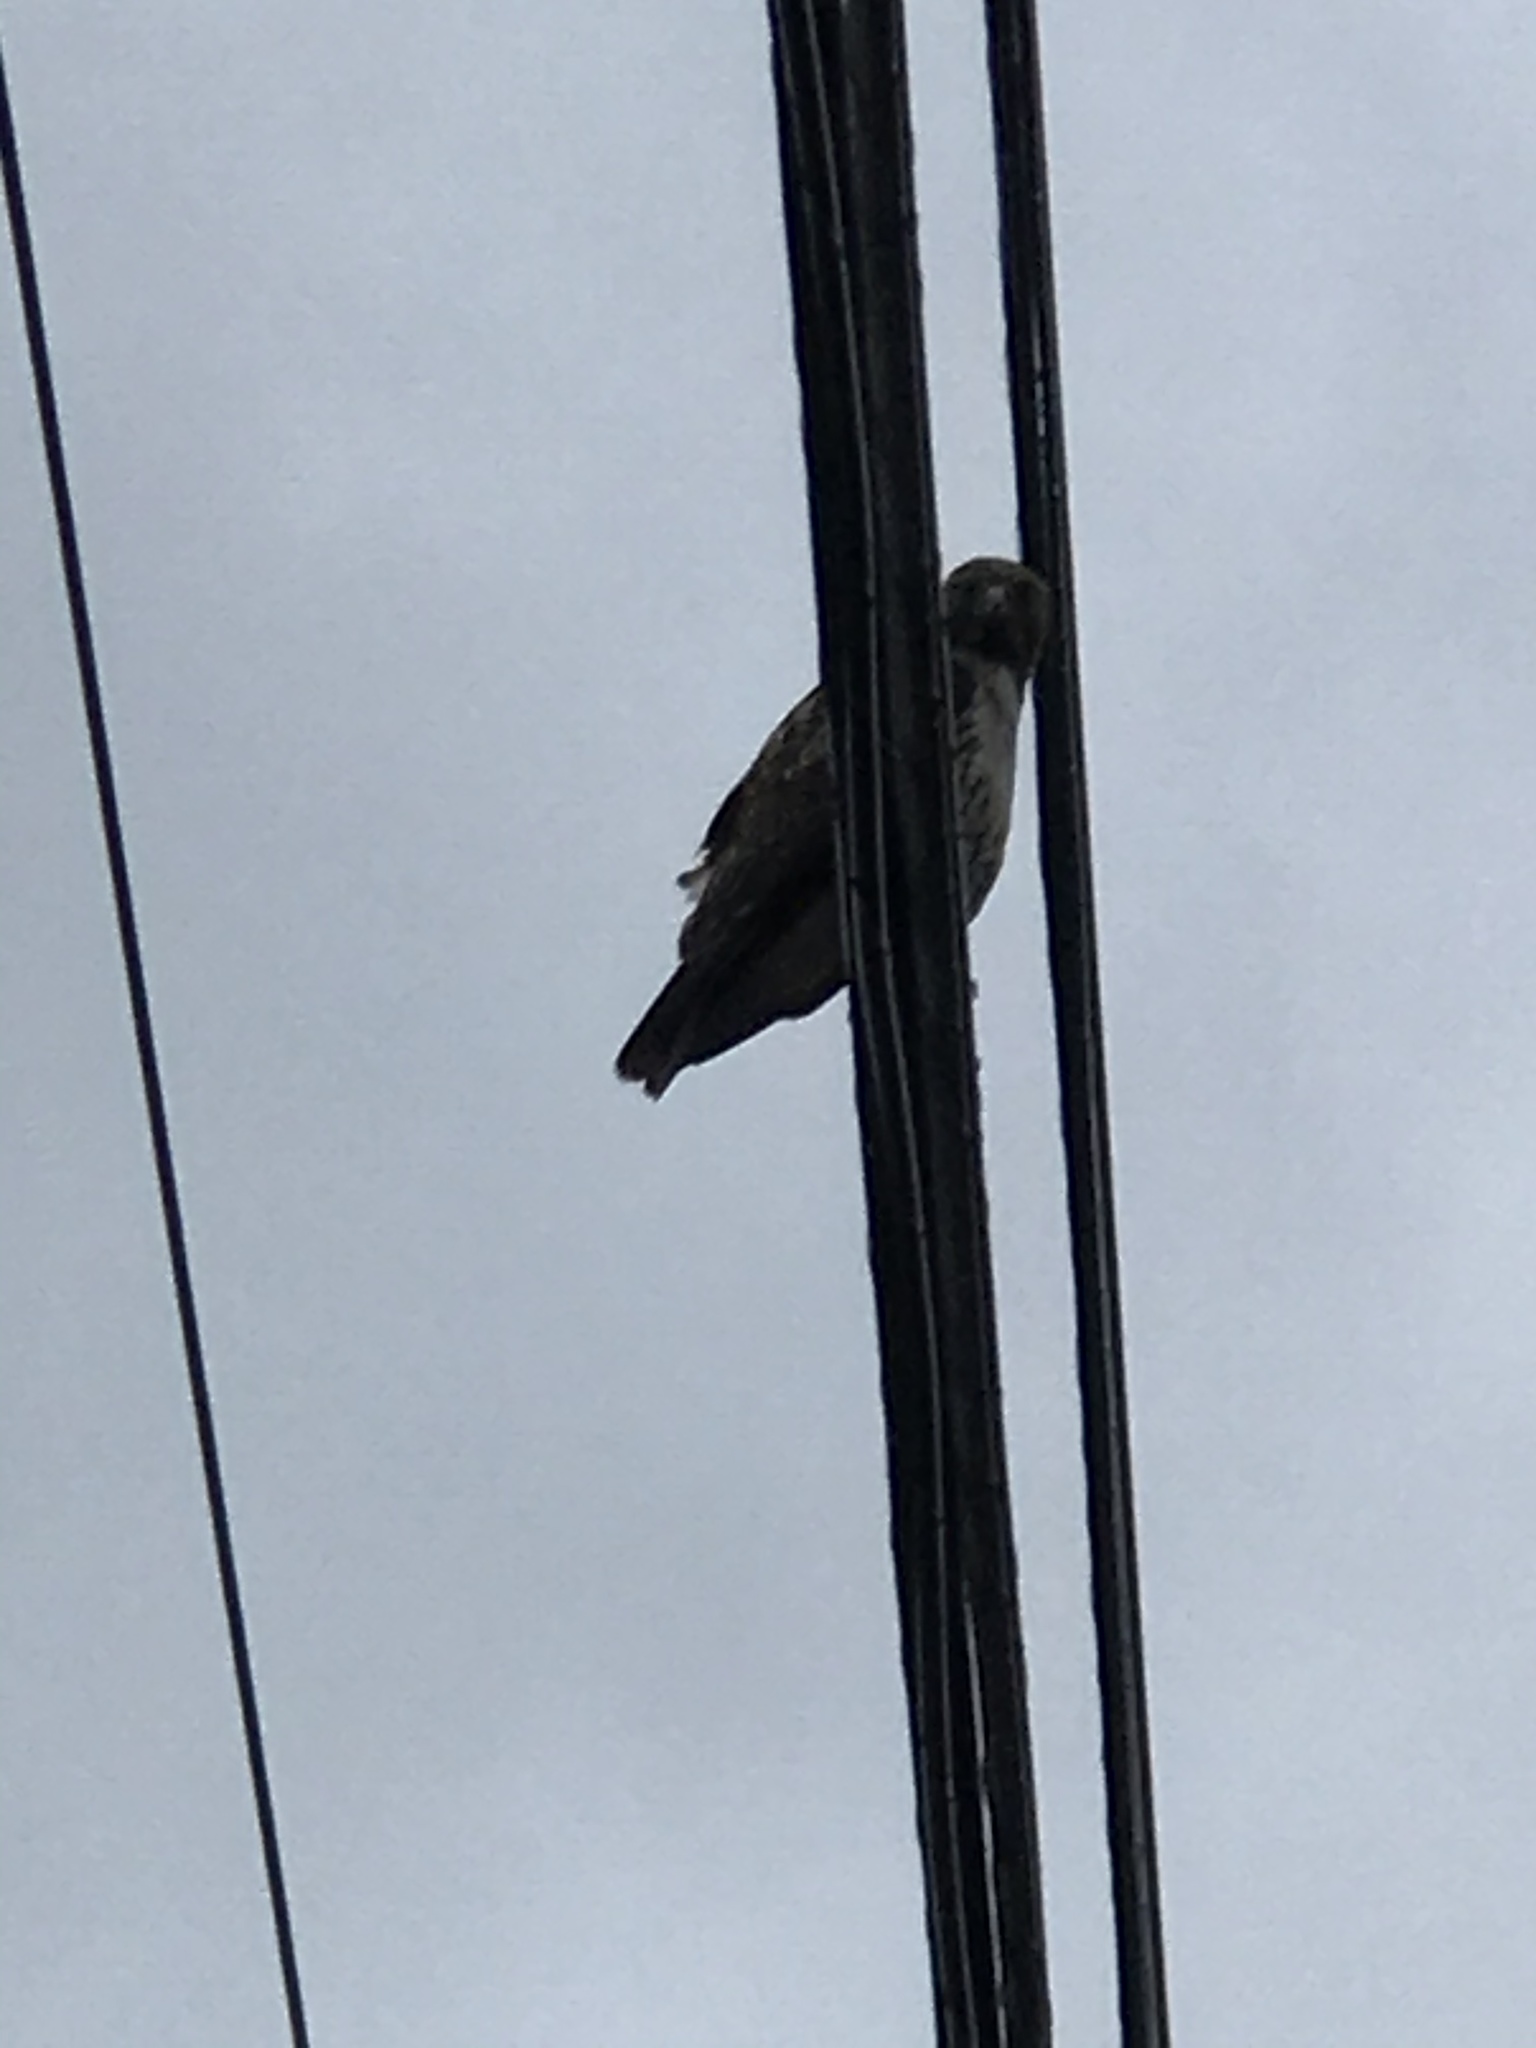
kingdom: Animalia
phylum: Chordata
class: Aves
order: Accipitriformes
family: Accipitridae
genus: Buteo
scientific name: Buteo jamaicensis
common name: Red-tailed hawk
